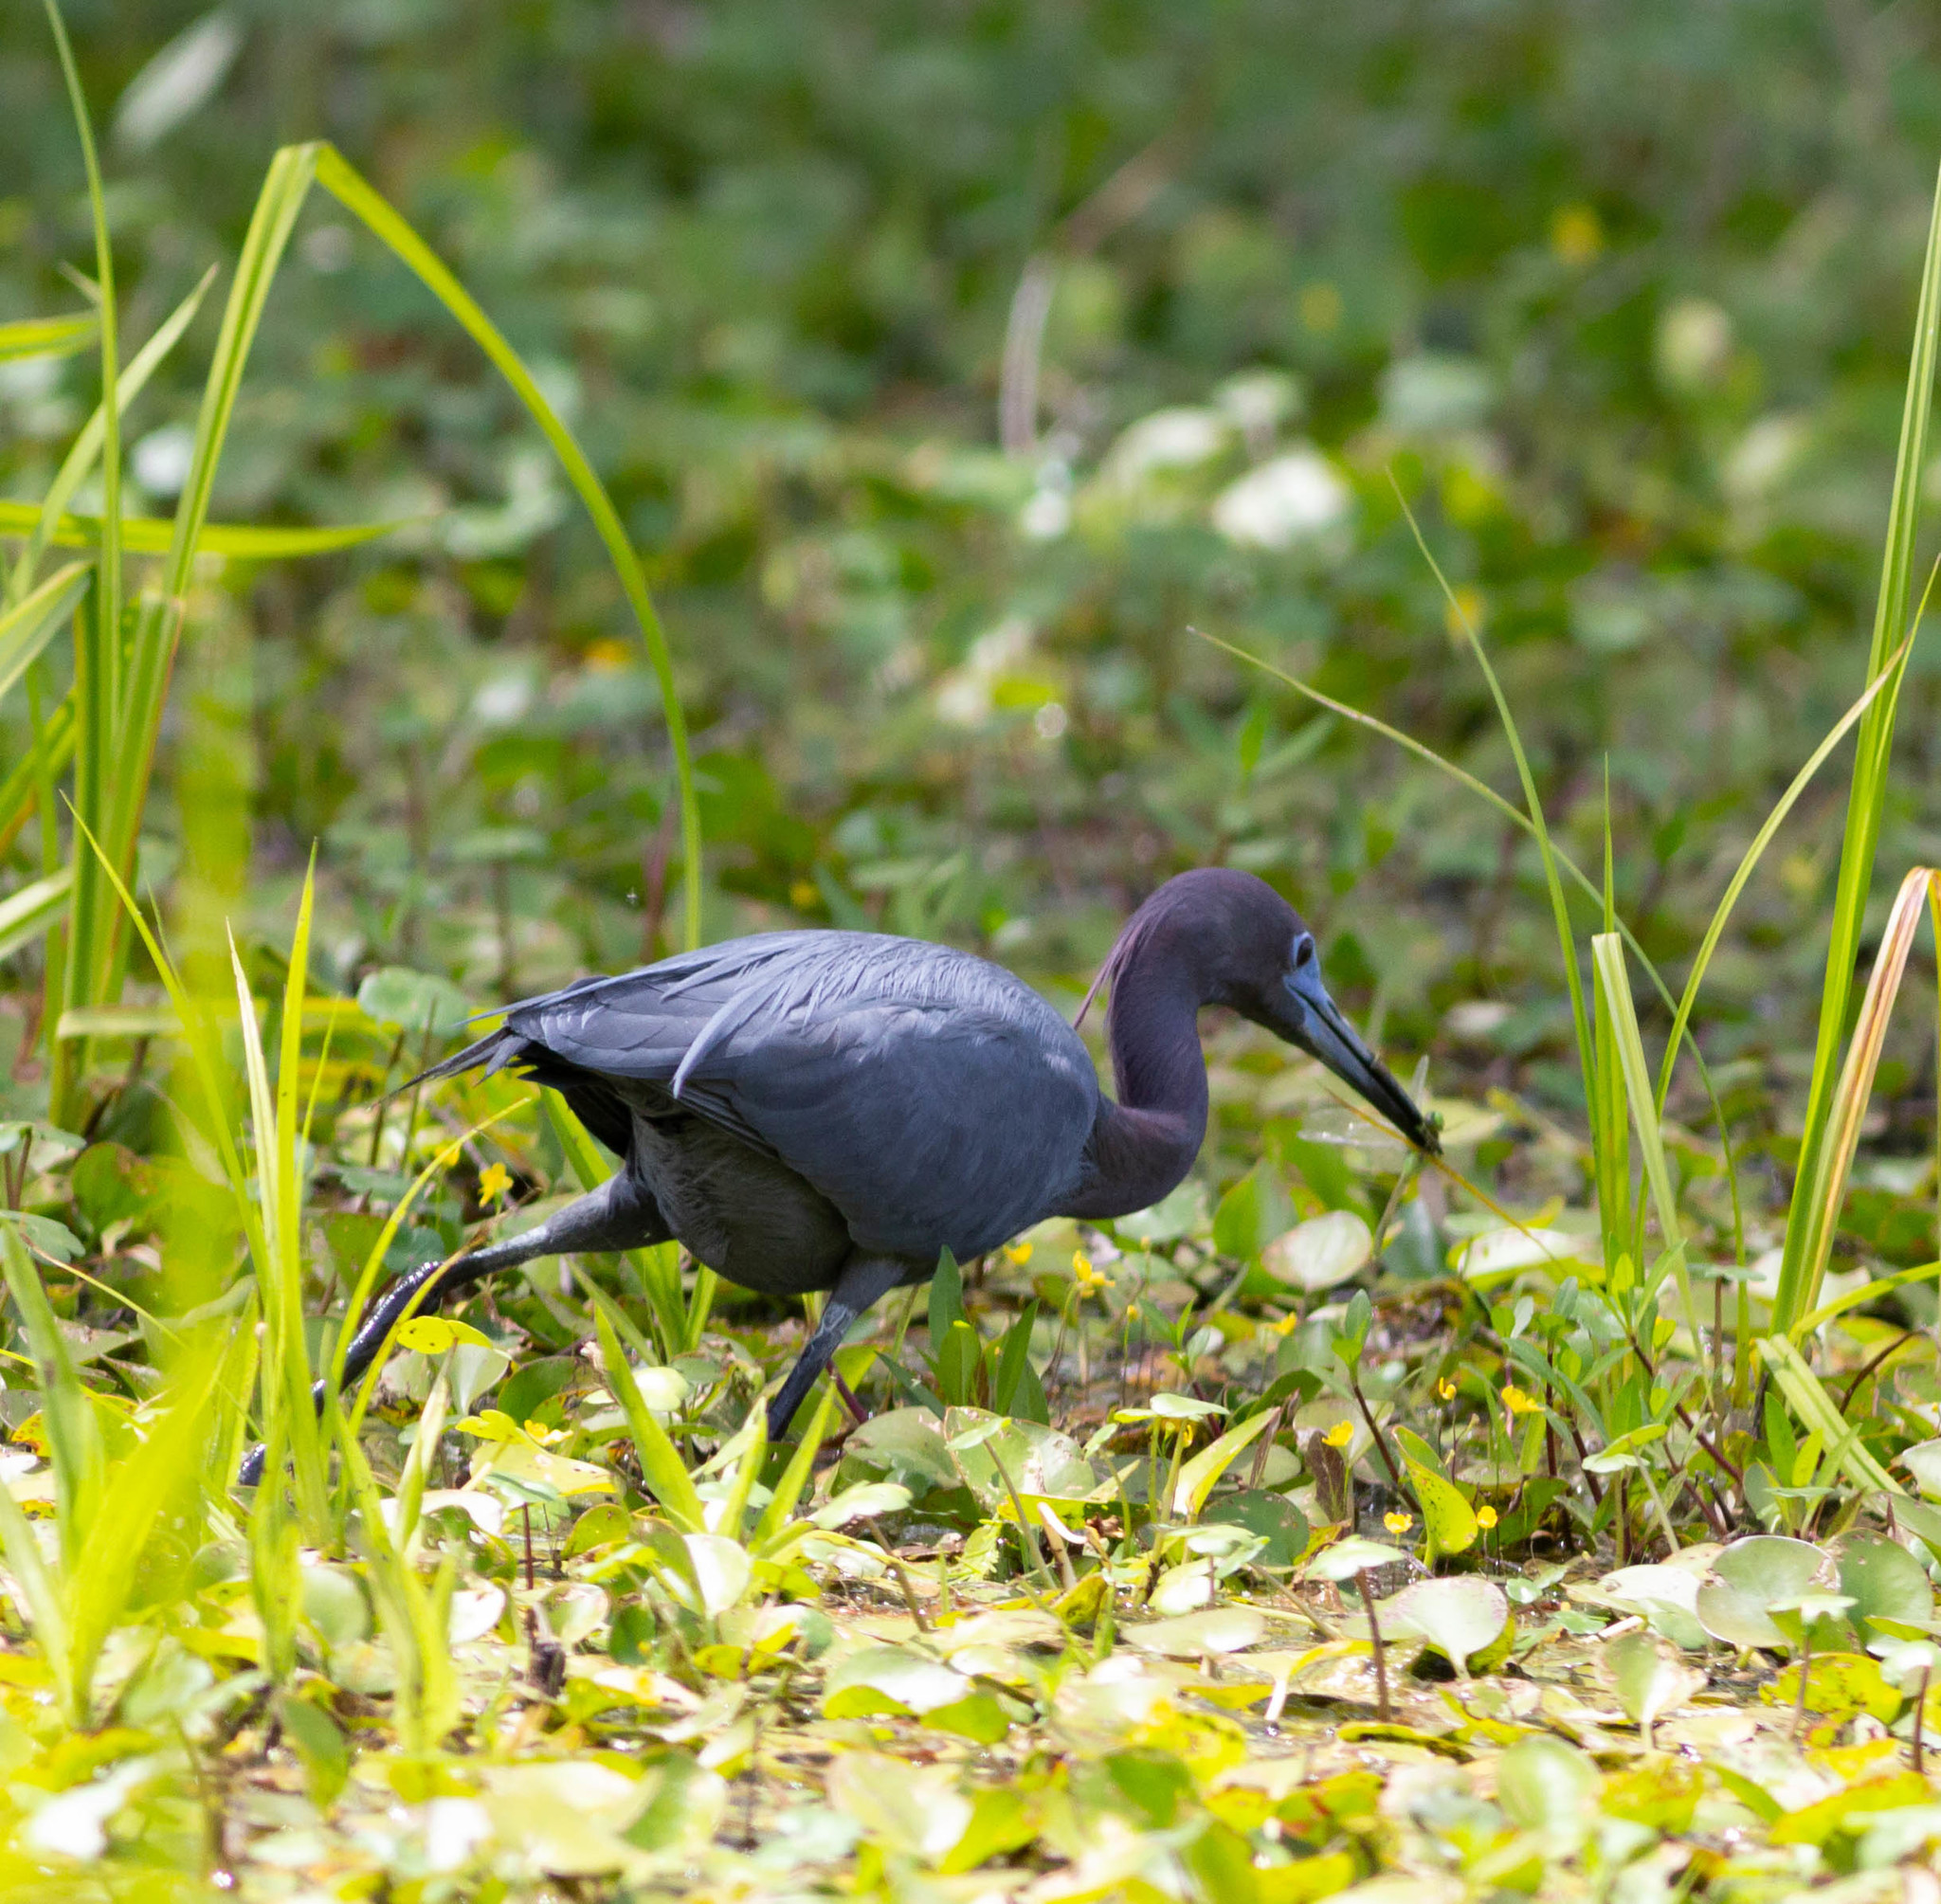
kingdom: Animalia
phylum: Chordata
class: Aves
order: Pelecaniformes
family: Ardeidae
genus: Egretta
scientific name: Egretta caerulea
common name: Little blue heron
